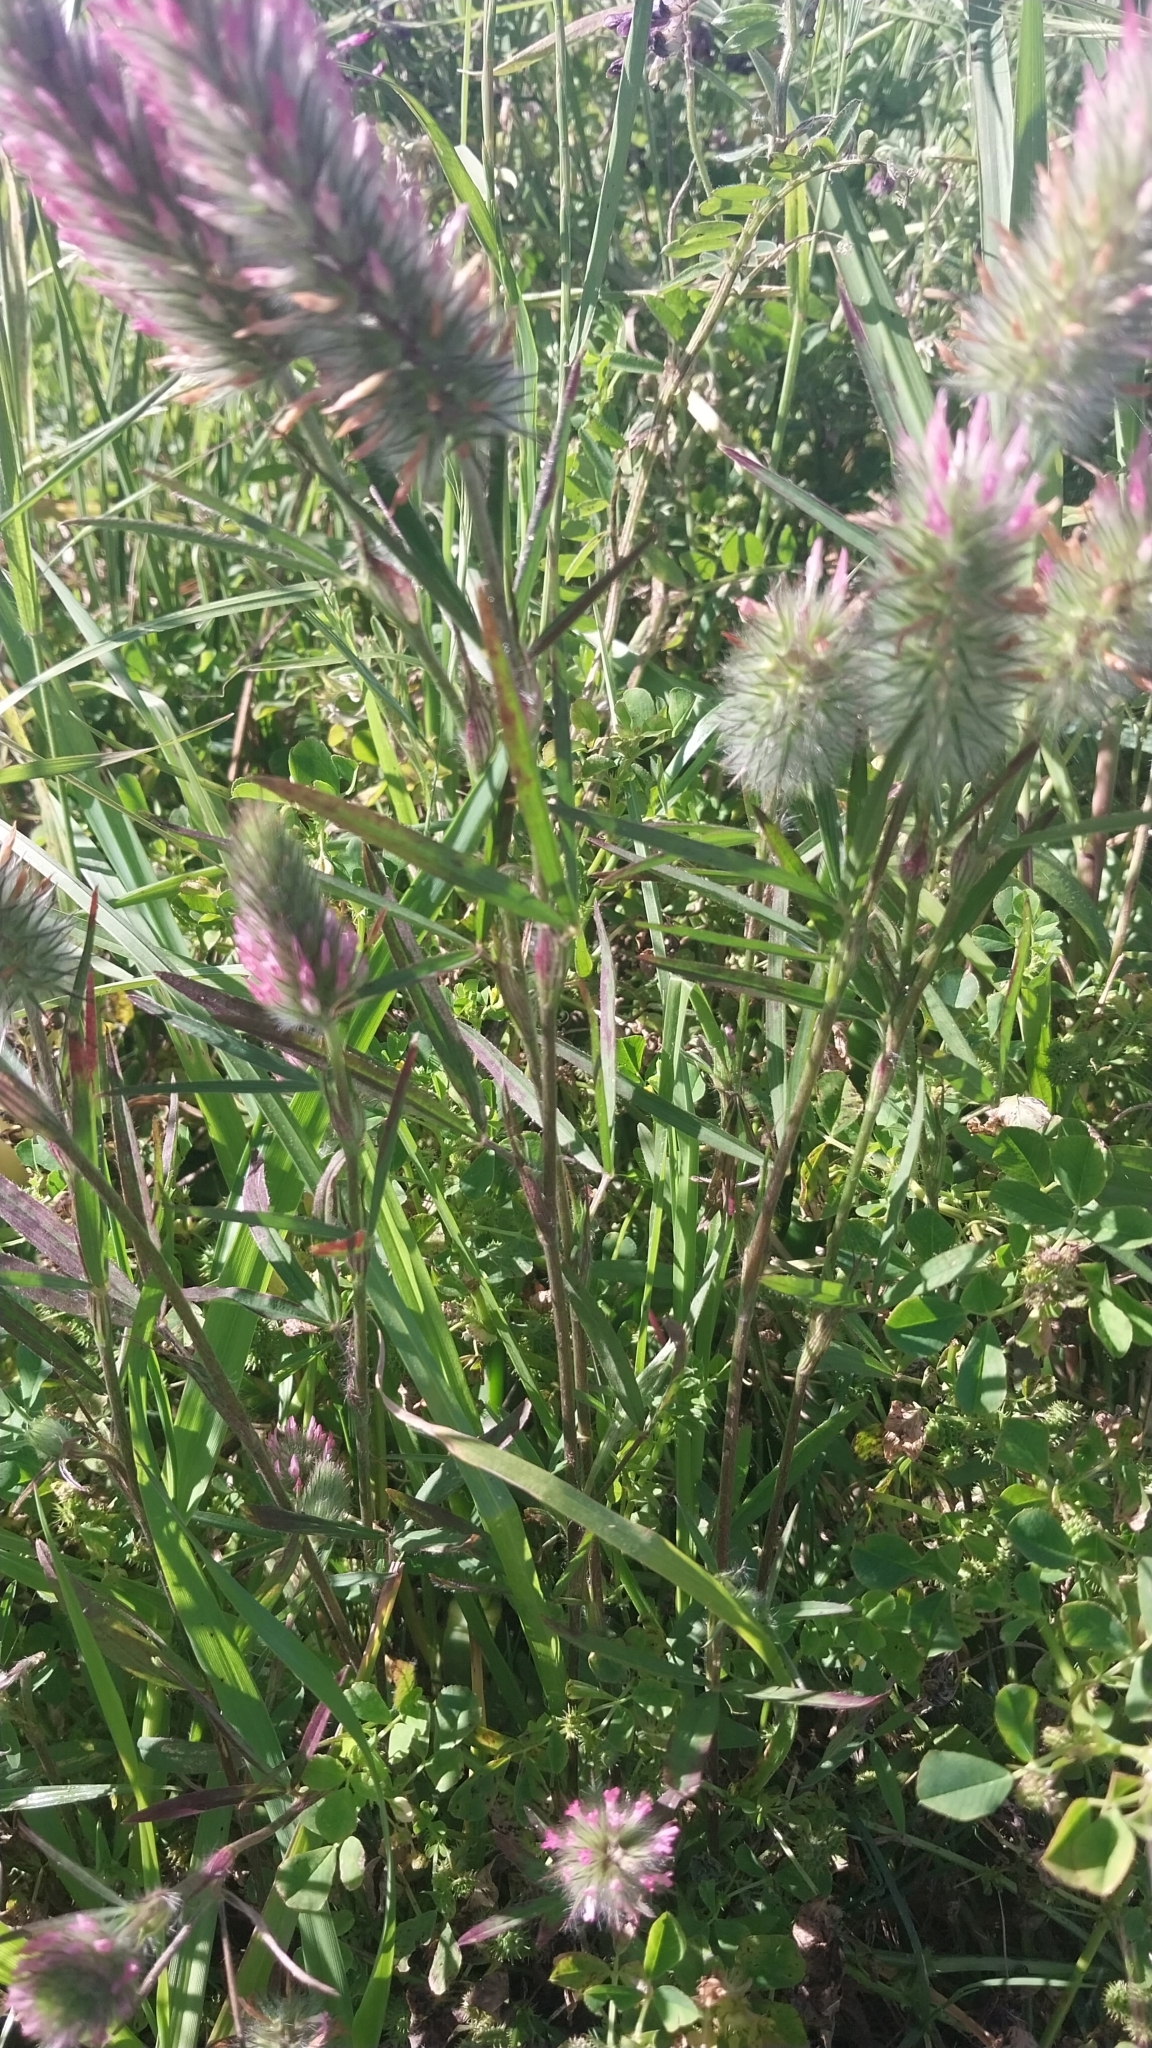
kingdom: Plantae
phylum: Tracheophyta
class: Magnoliopsida
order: Fabales
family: Fabaceae
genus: Trifolium
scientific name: Trifolium angustifolium
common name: Narrow clover
